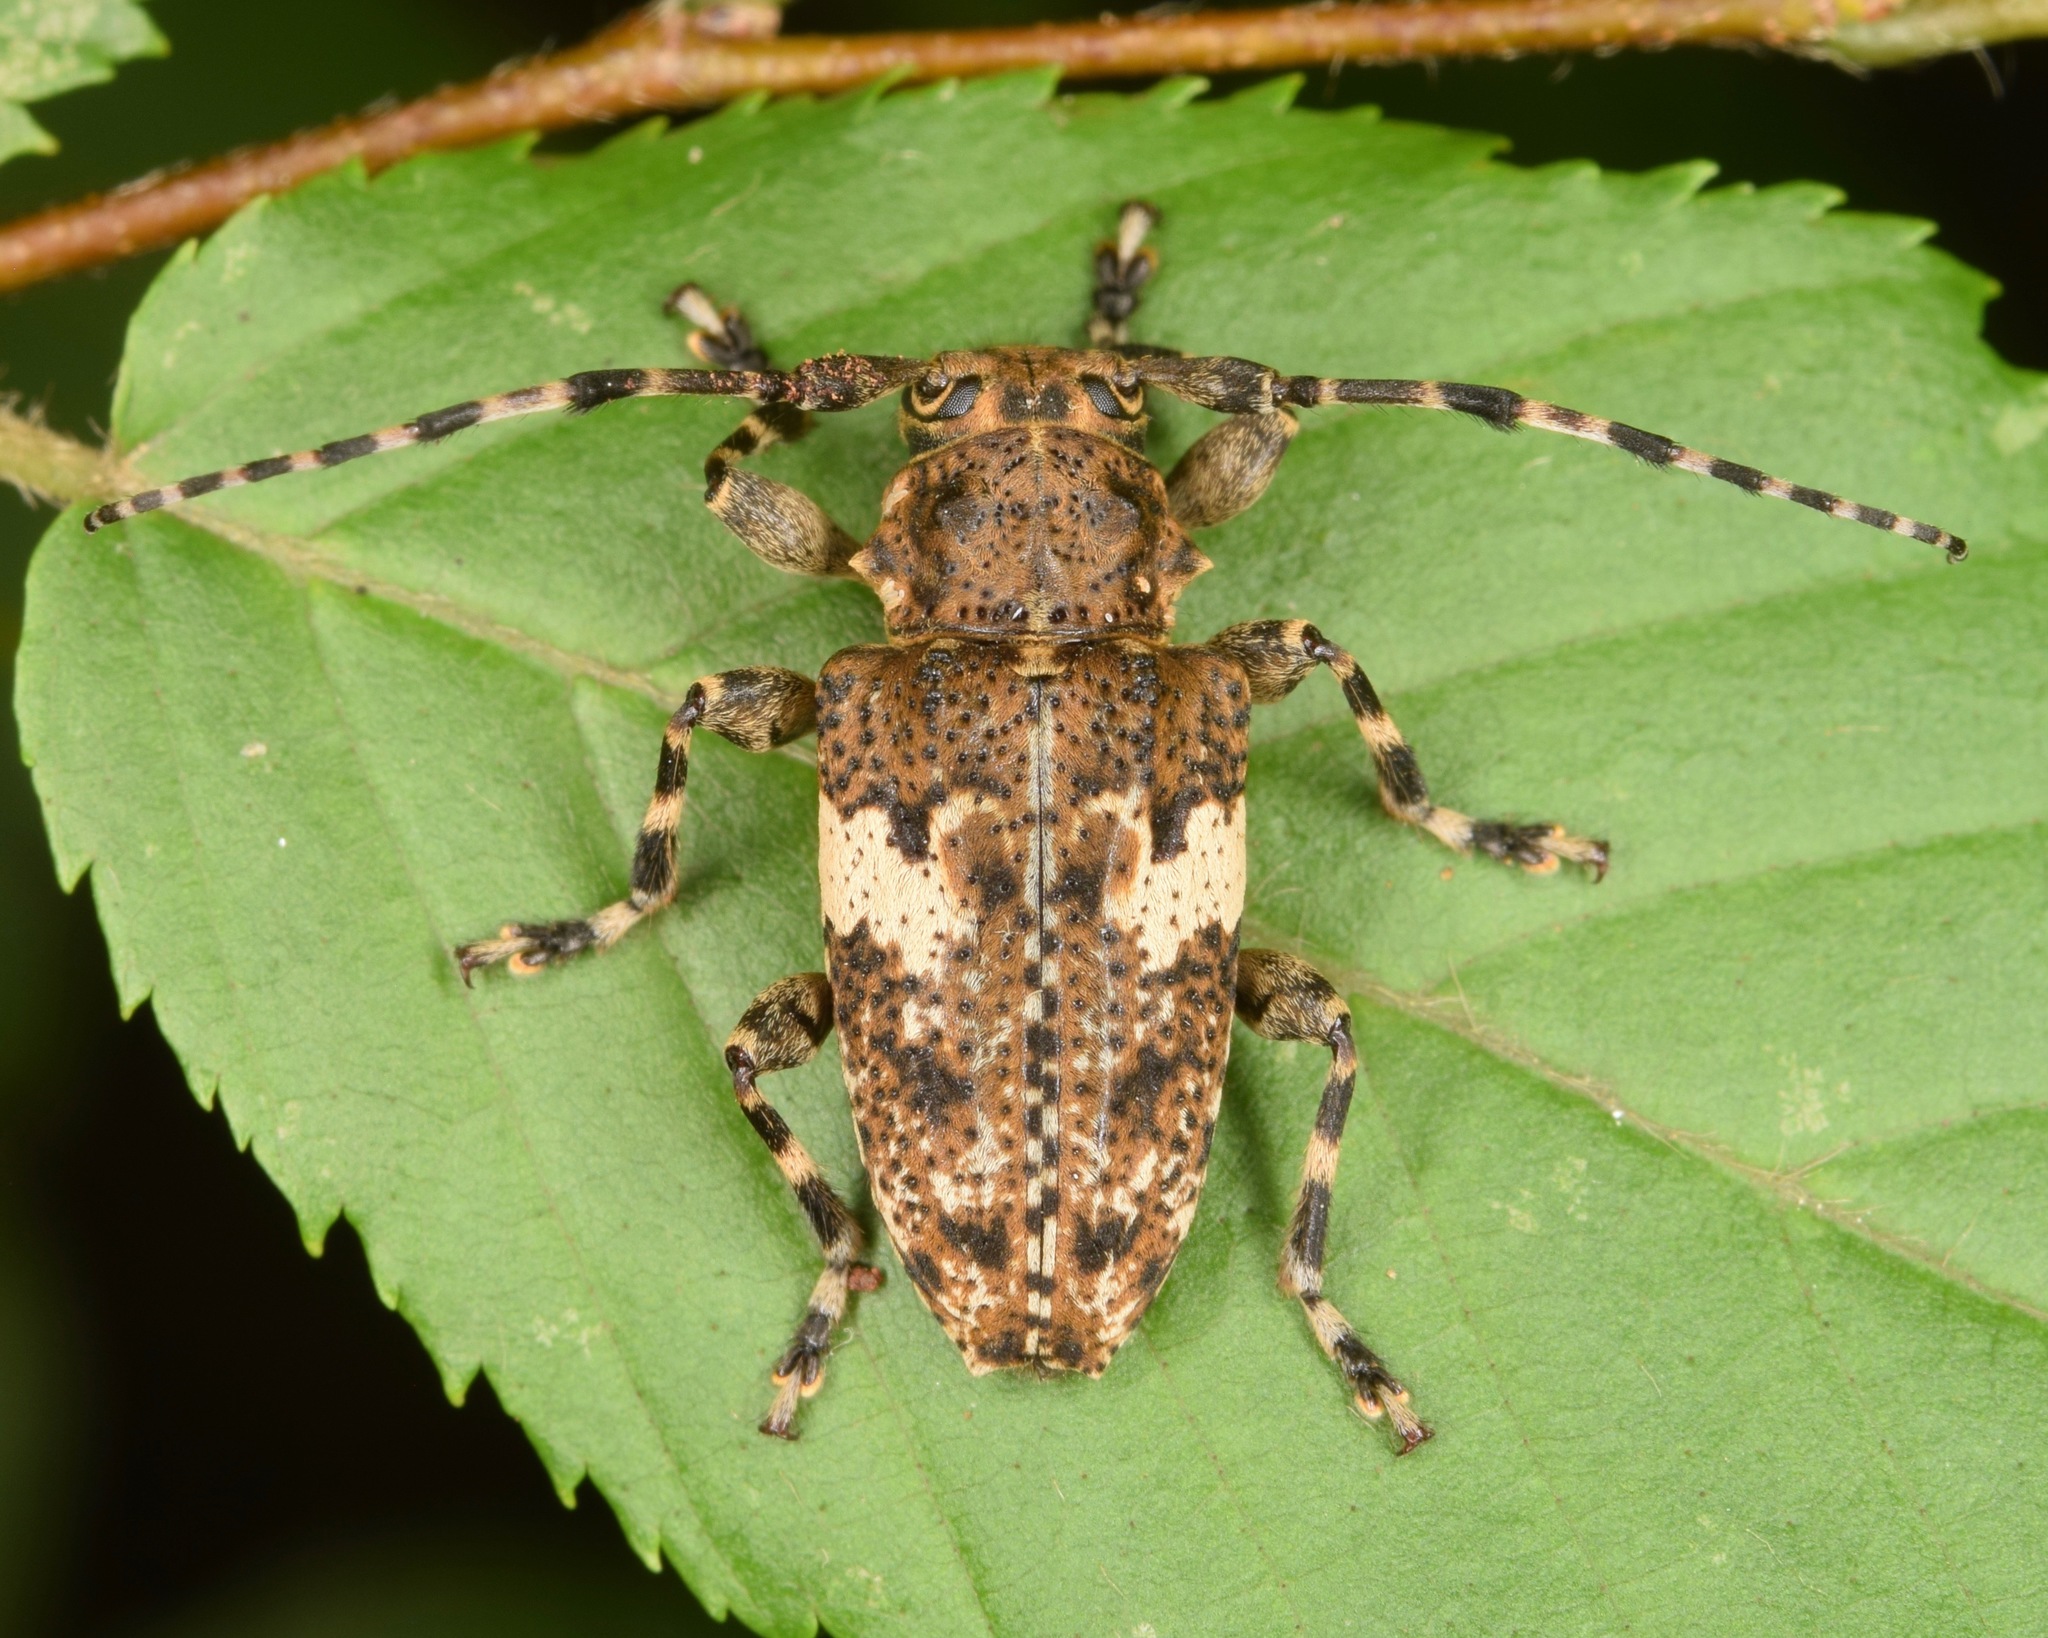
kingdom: Animalia
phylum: Arthropoda
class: Insecta
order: Coleoptera
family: Cerambycidae
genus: Acanthoderes
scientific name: Acanthoderes quadrigibba
